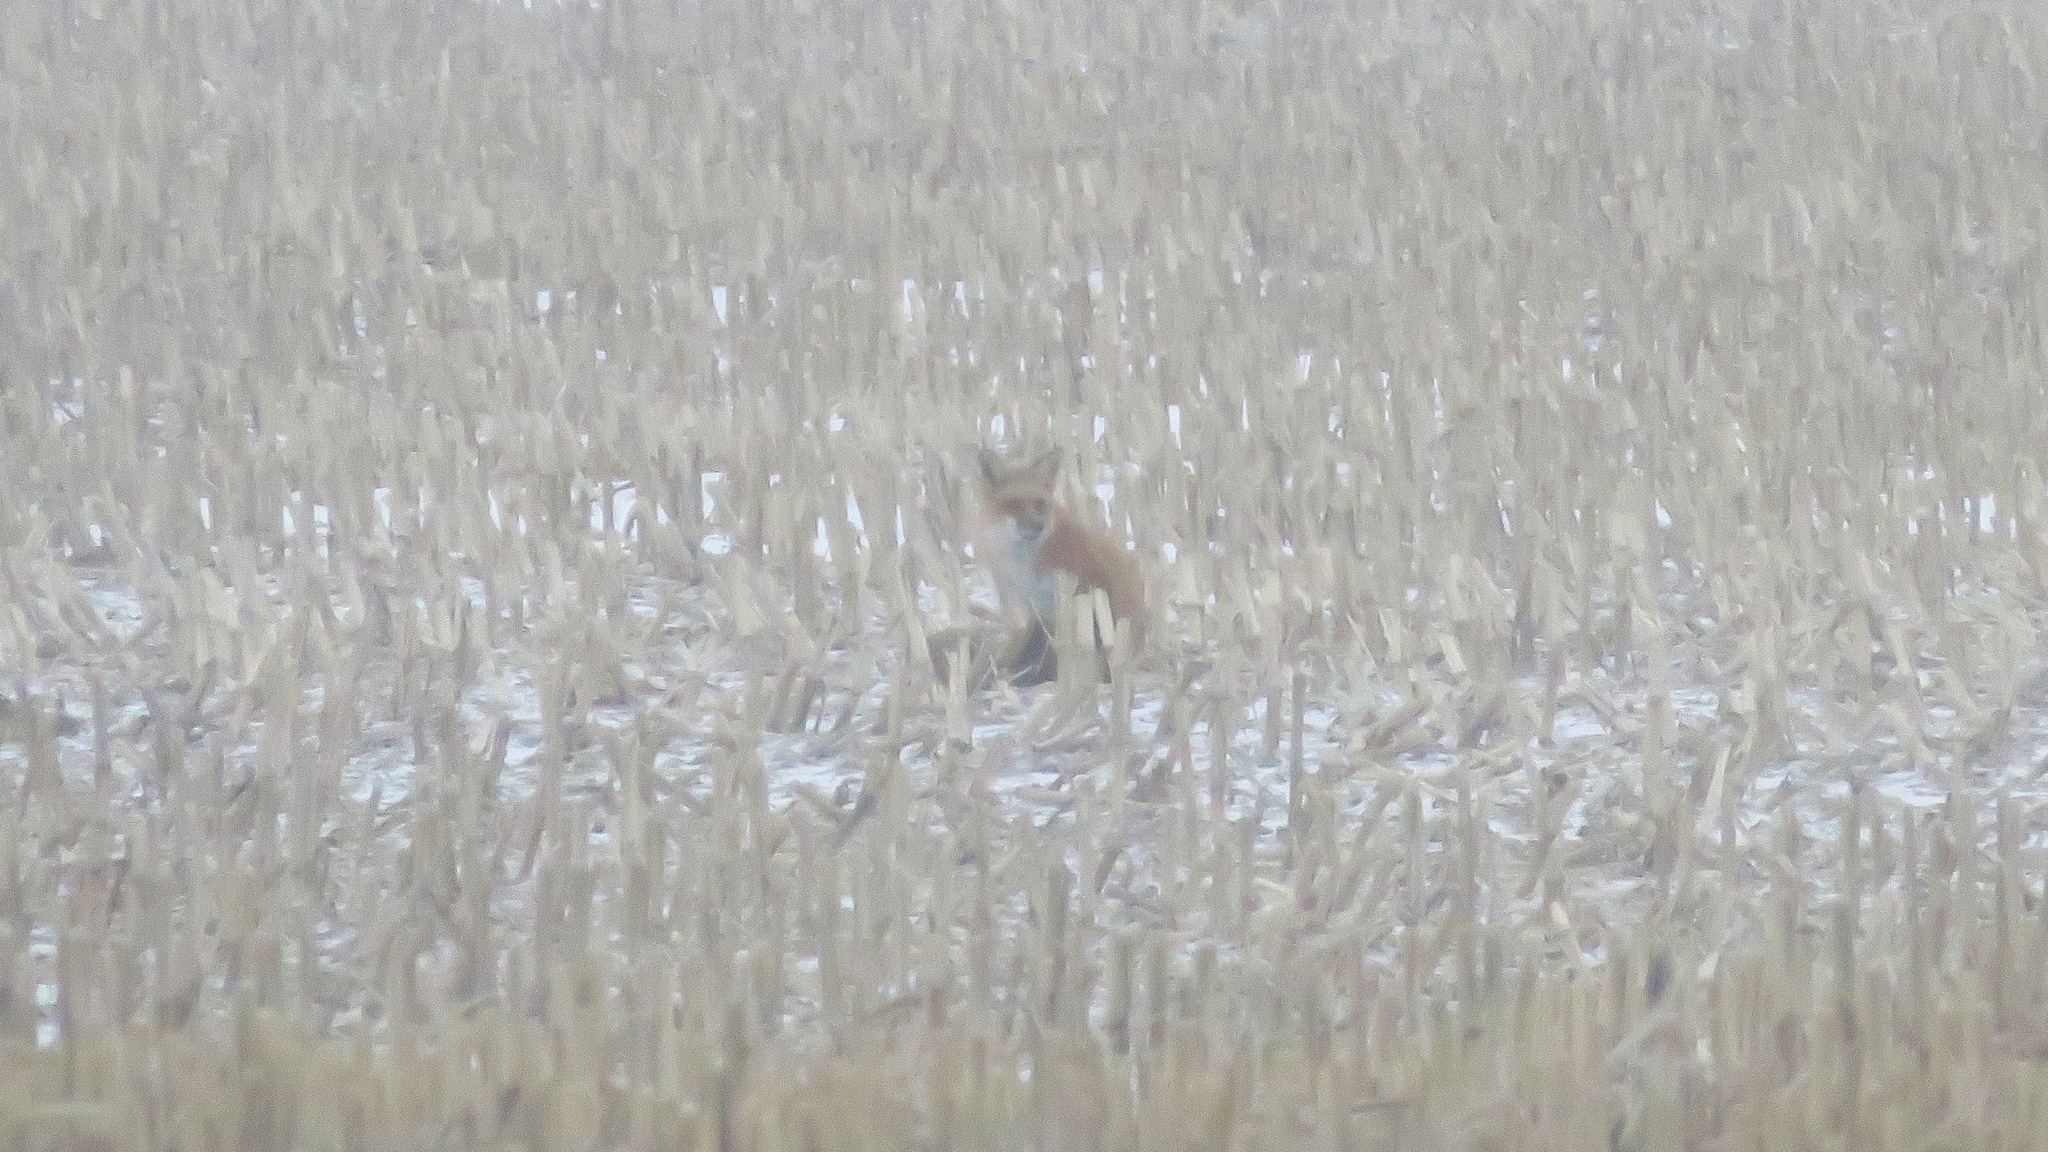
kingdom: Animalia
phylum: Chordata
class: Mammalia
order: Carnivora
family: Canidae
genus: Vulpes
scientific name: Vulpes vulpes
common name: Red fox
